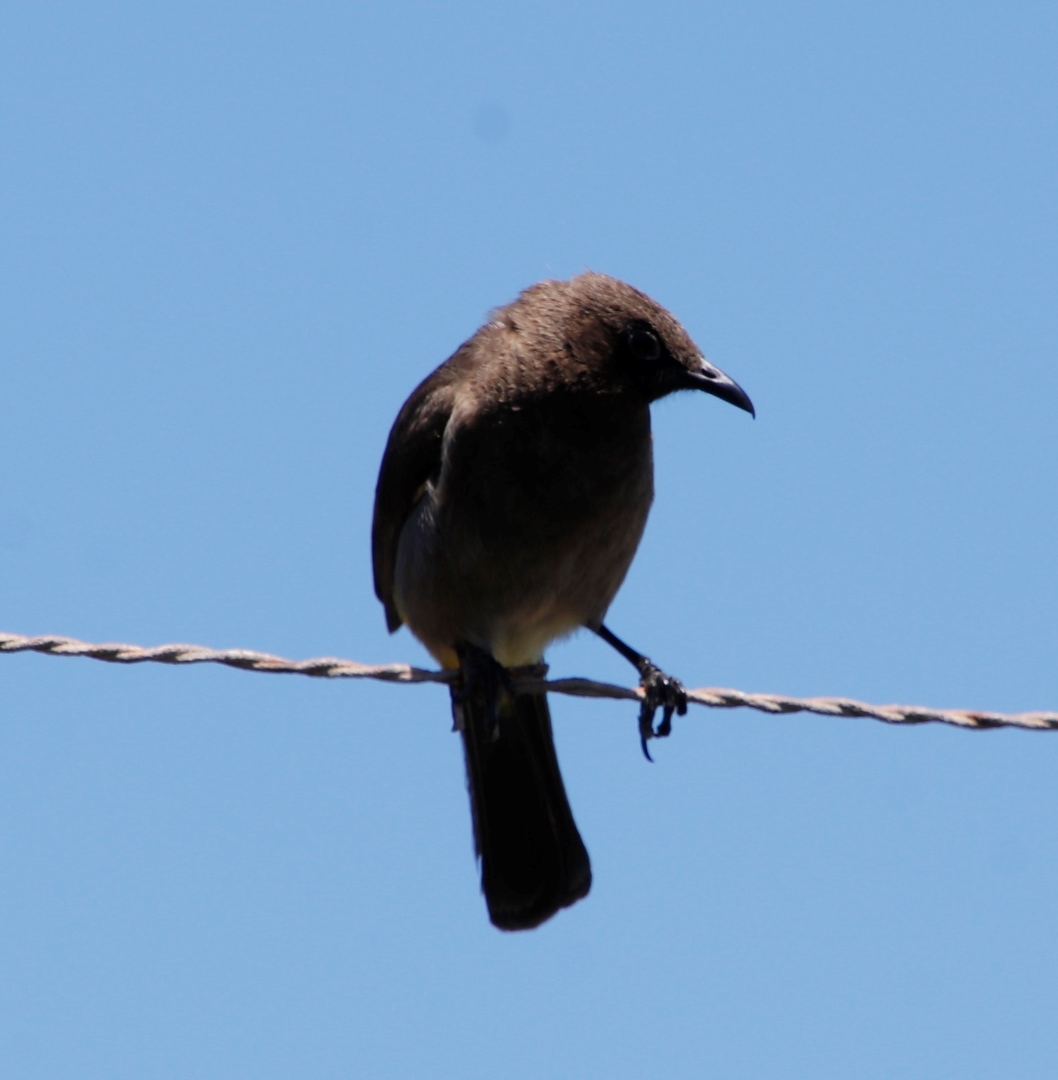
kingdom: Animalia
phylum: Chordata
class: Aves
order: Passeriformes
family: Pycnonotidae
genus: Pycnonotus
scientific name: Pycnonotus capensis
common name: Cape bulbul
